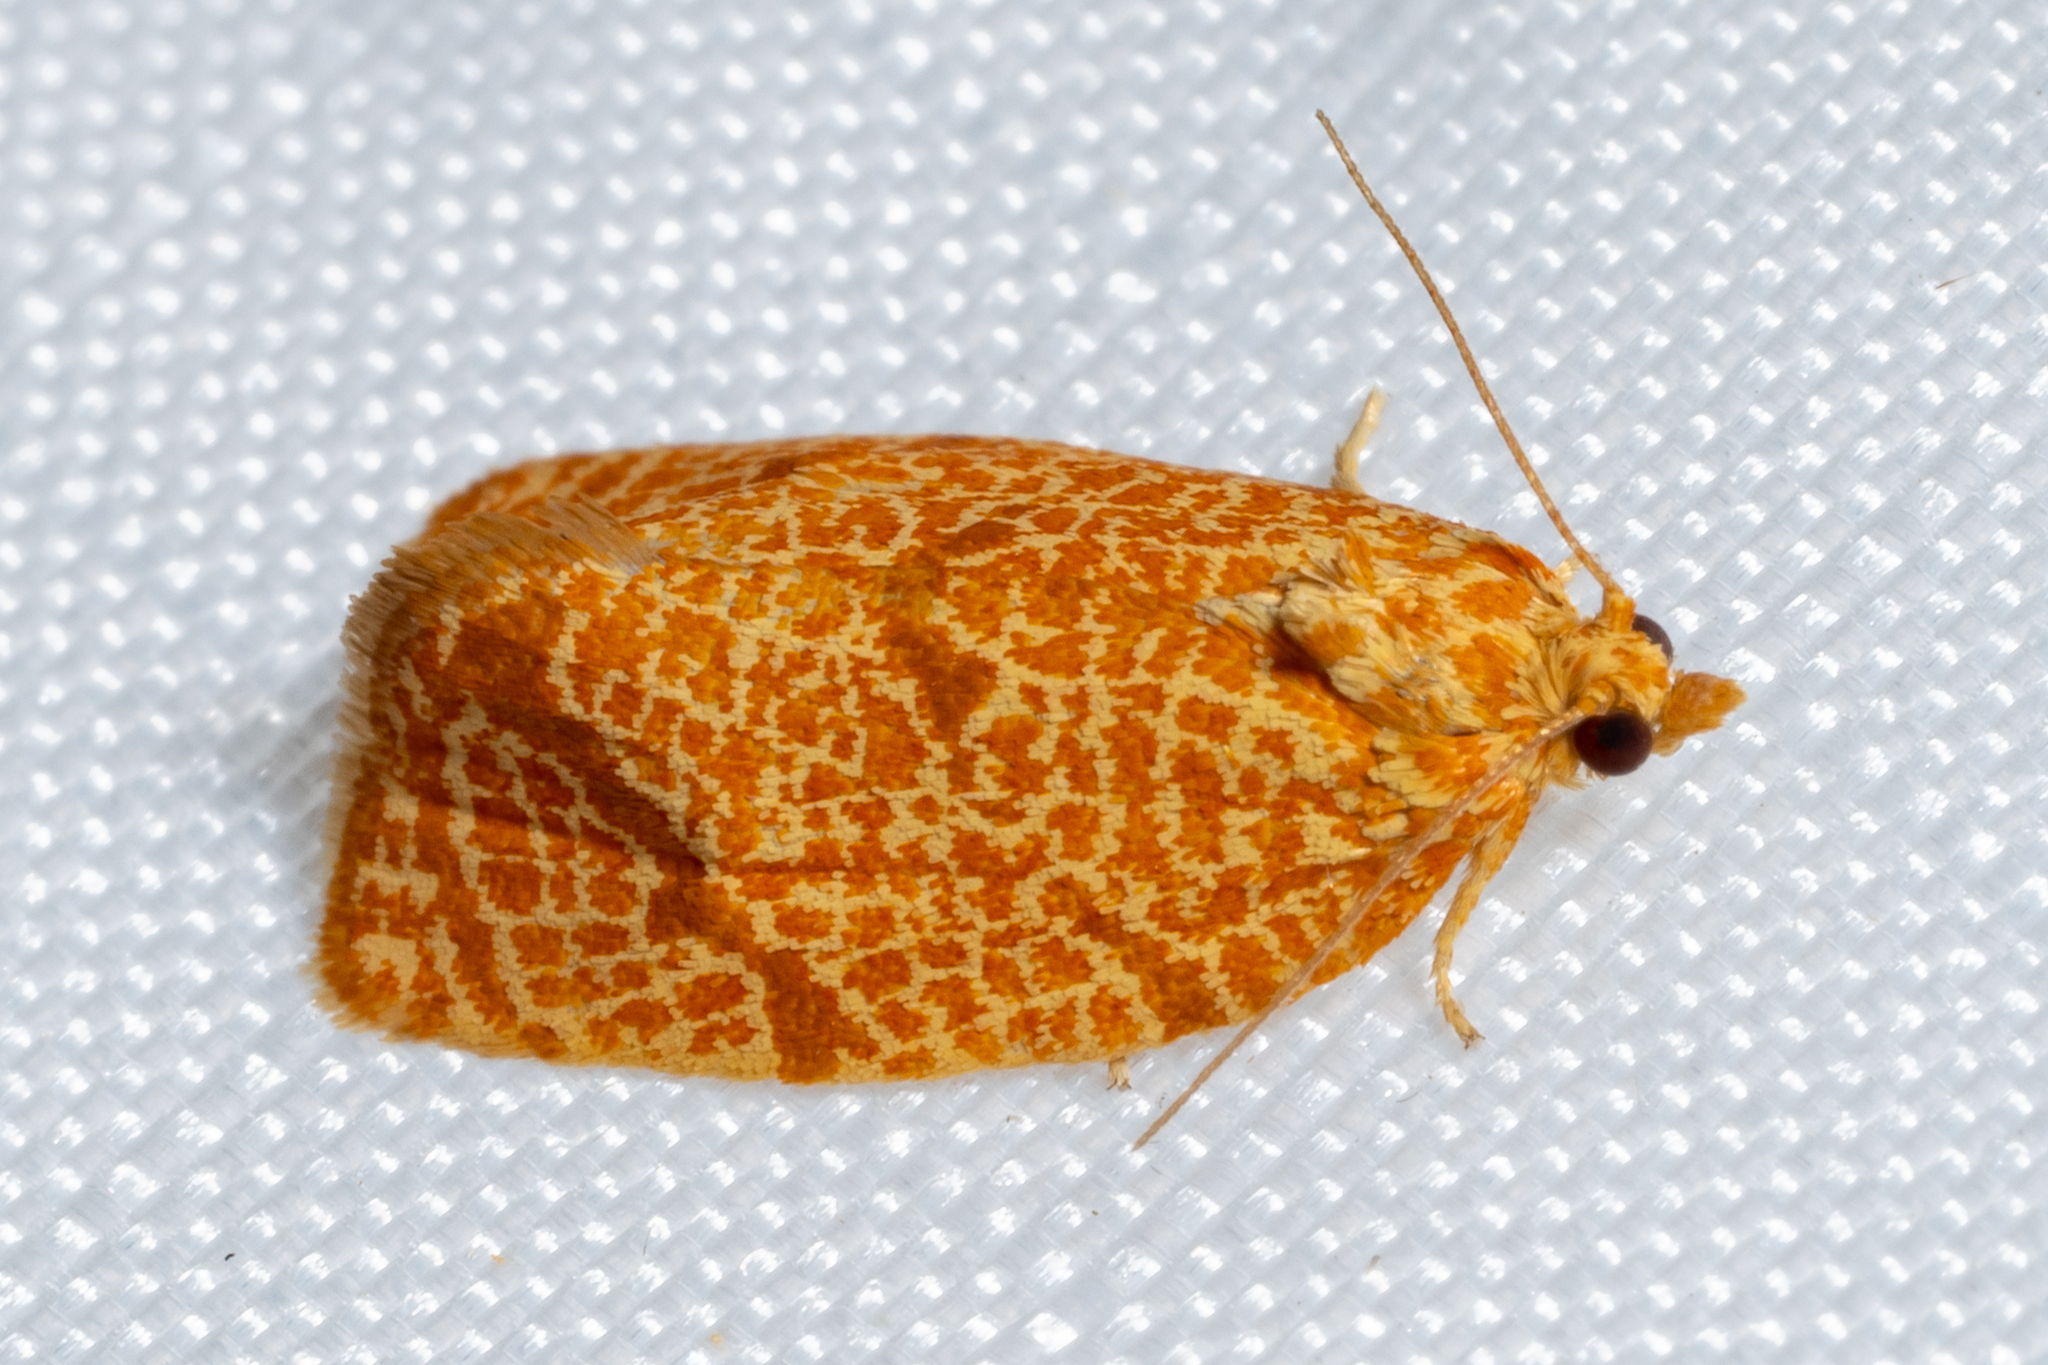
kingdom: Animalia
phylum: Arthropoda
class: Insecta
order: Lepidoptera
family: Tortricidae
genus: Argyrotaenia
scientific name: Argyrotaenia quadrifasciana
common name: Four-lined leafroller moth
